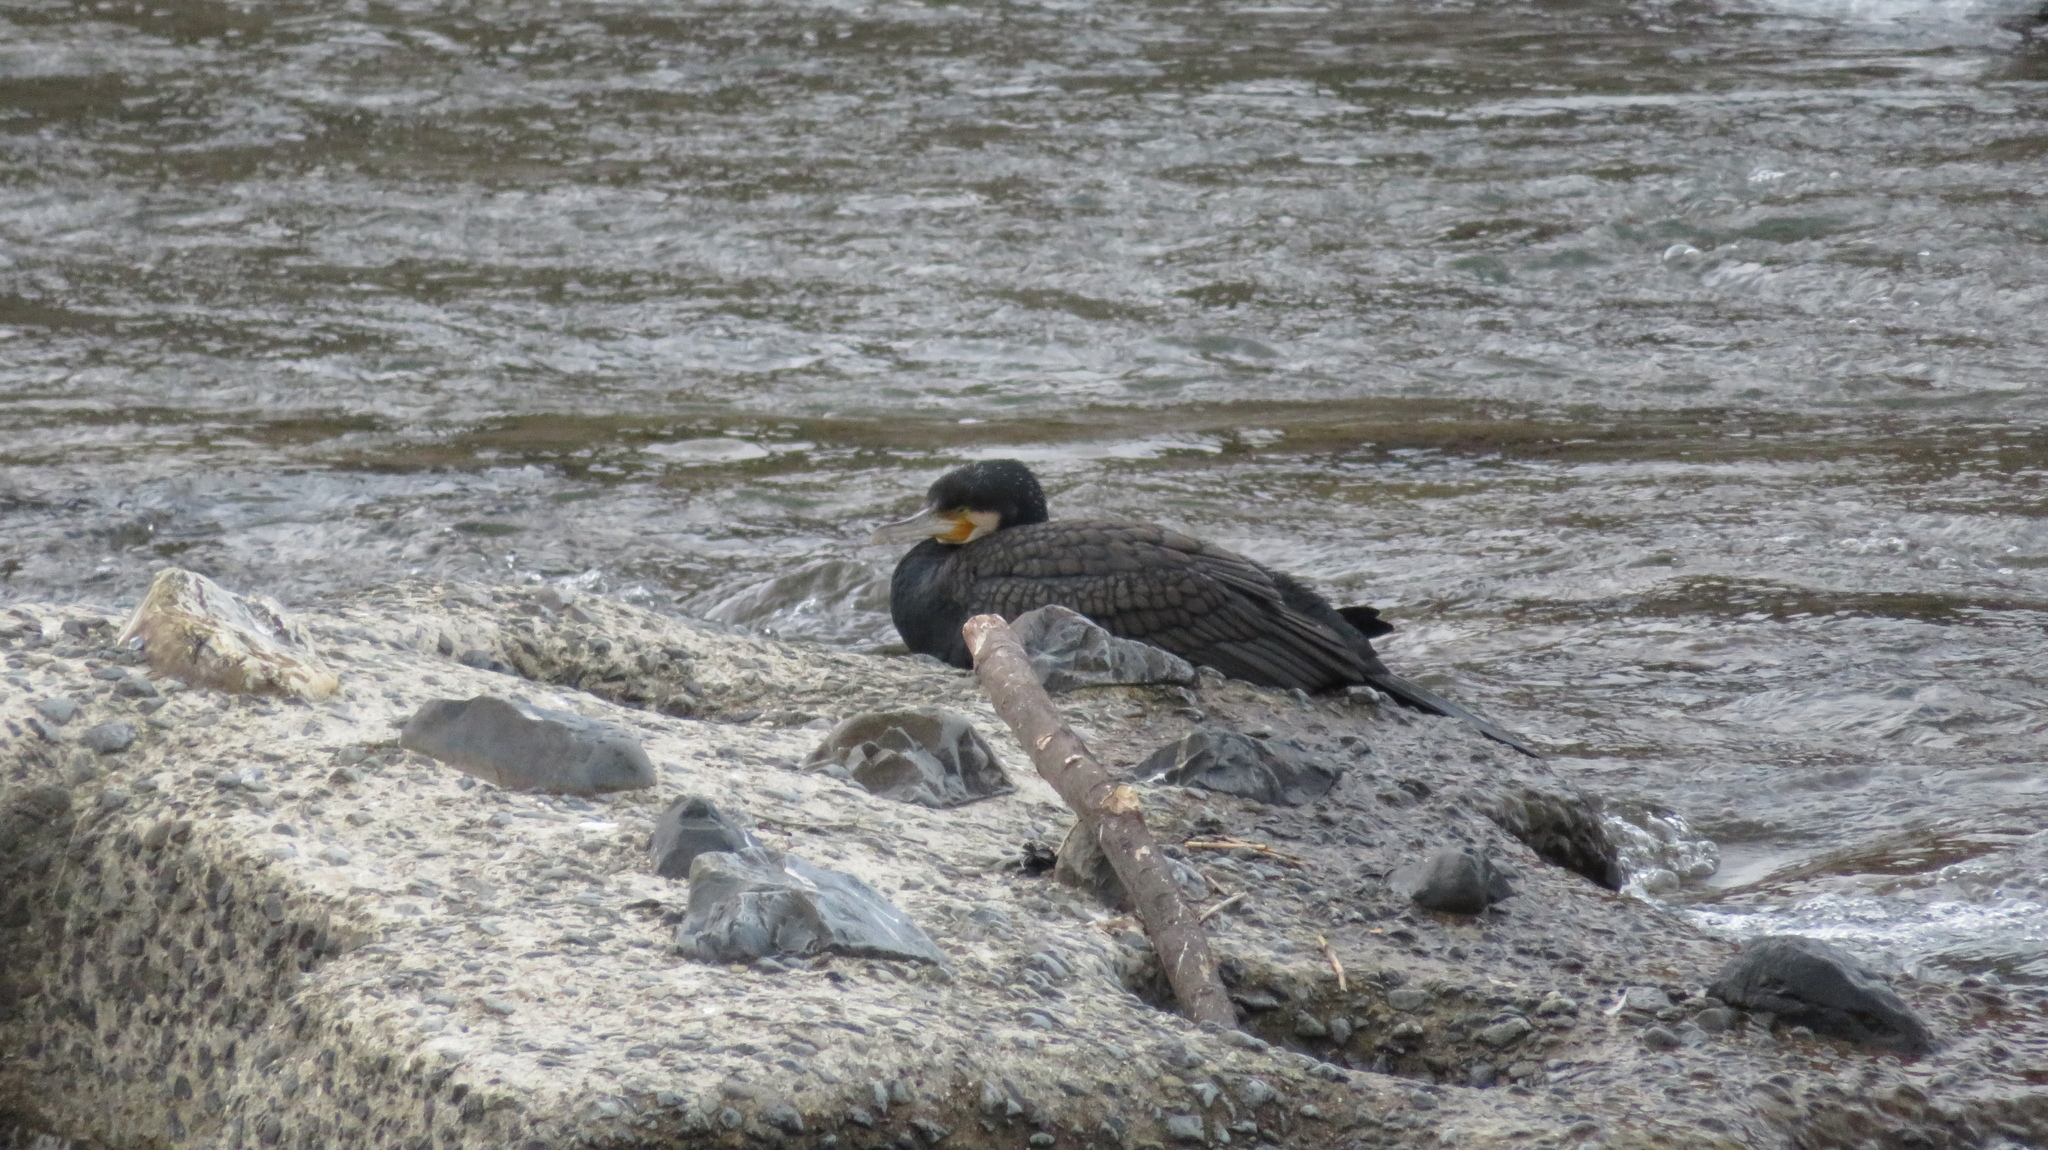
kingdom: Animalia
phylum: Chordata
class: Aves
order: Suliformes
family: Phalacrocoracidae
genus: Phalacrocorax
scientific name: Phalacrocorax carbo
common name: Great cormorant
